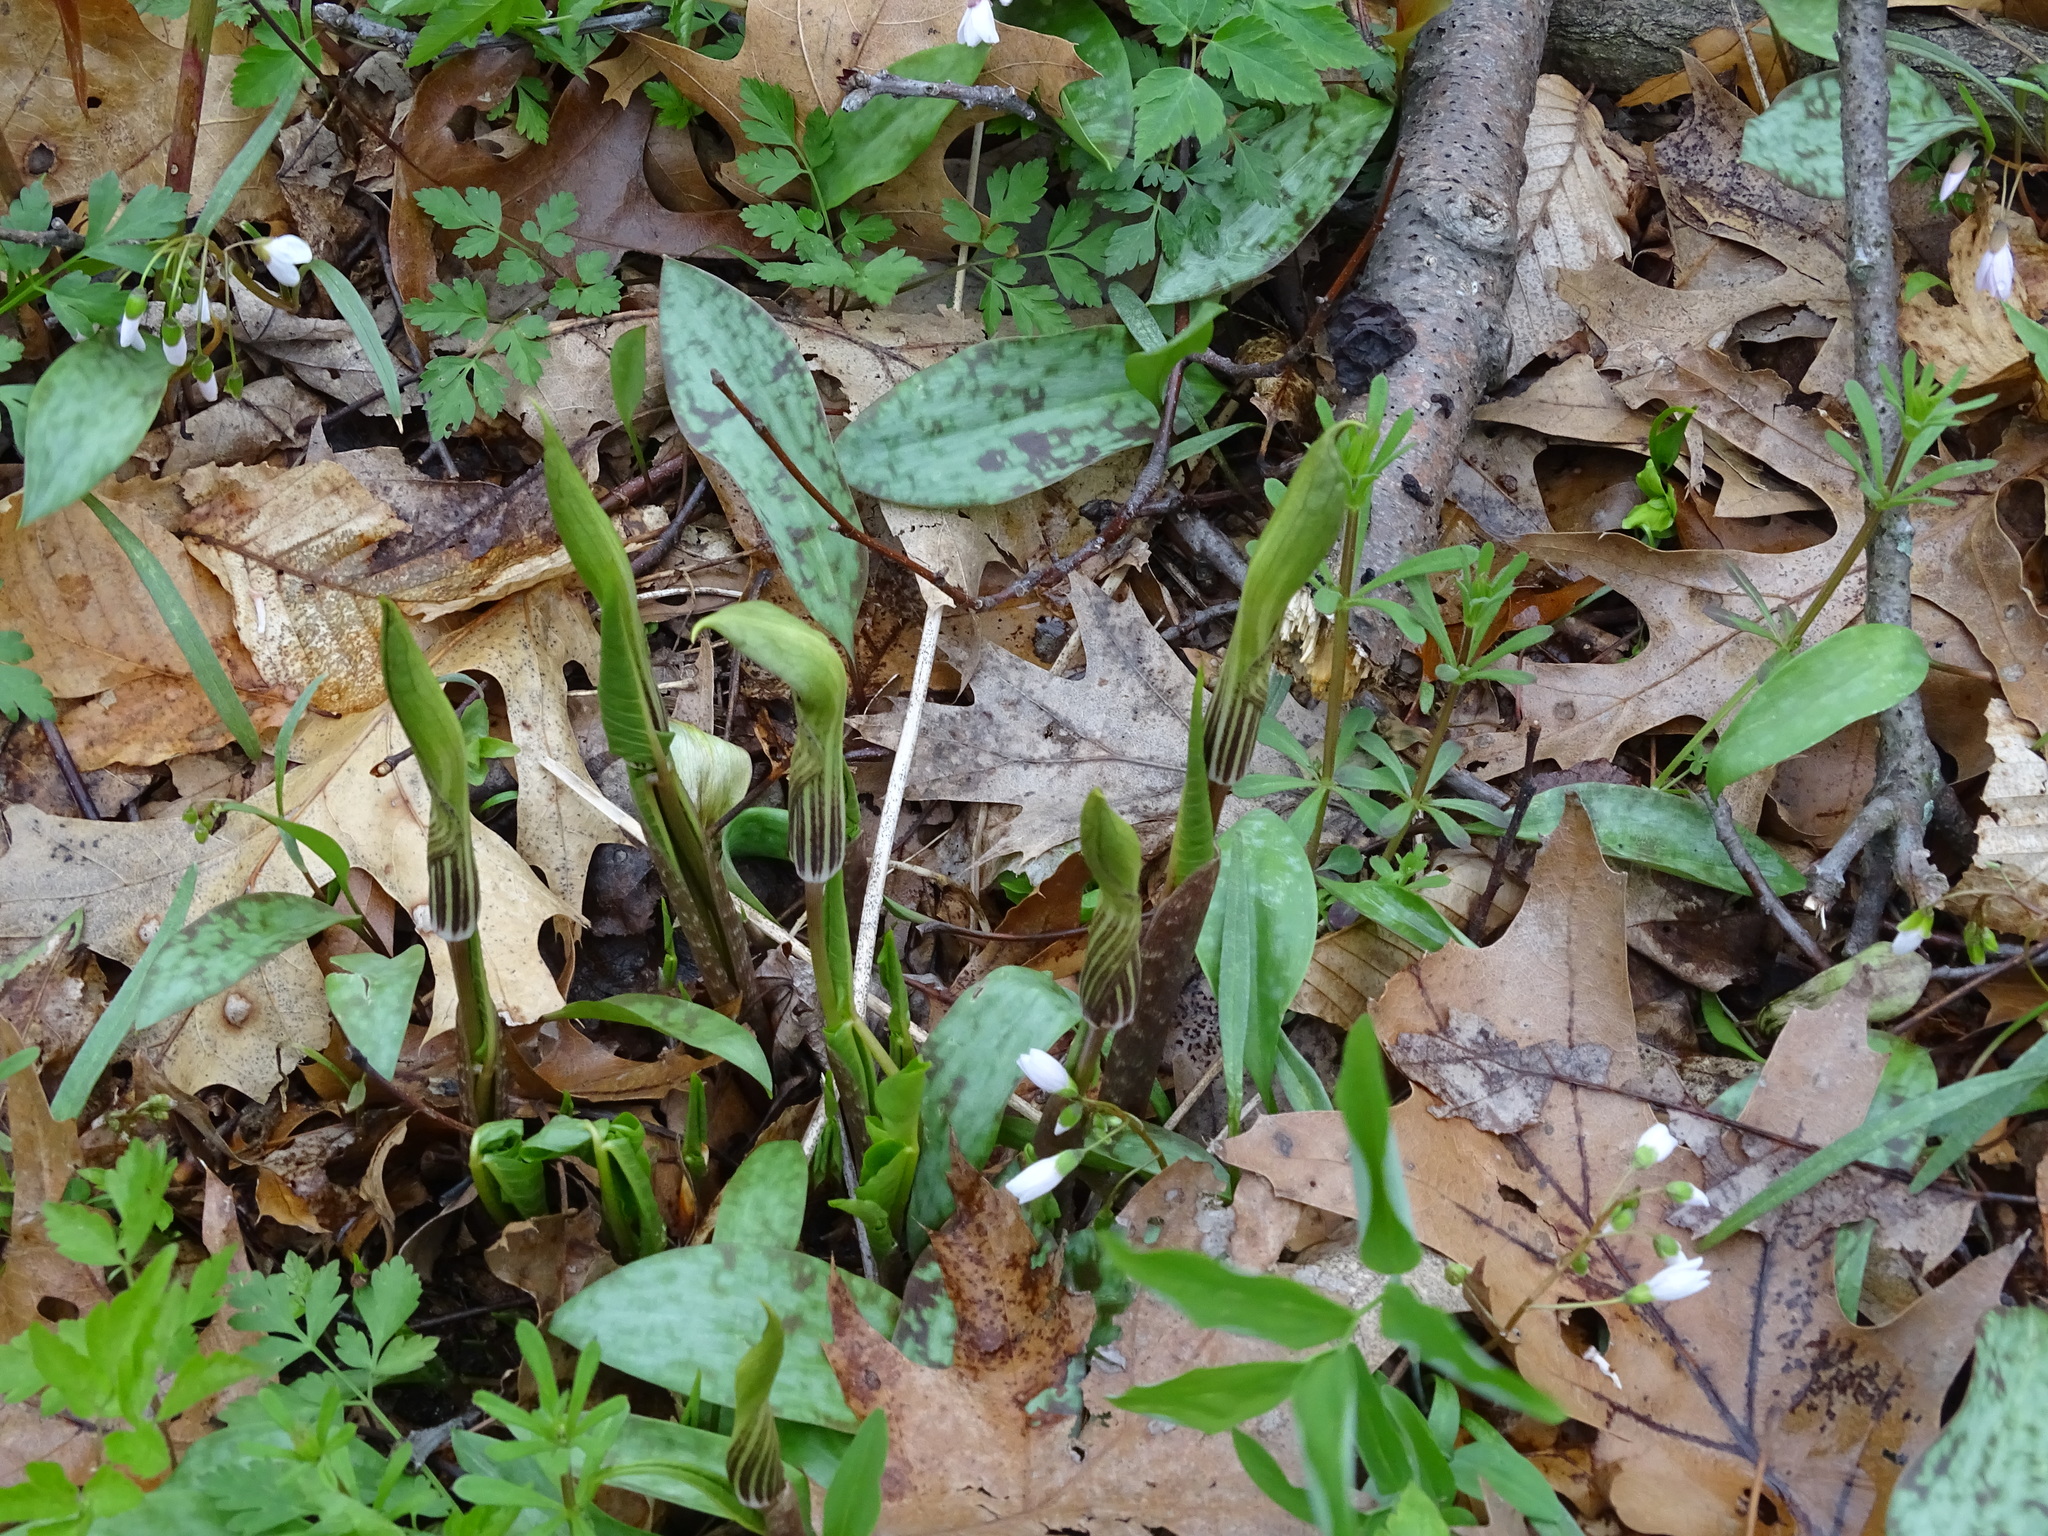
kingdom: Plantae
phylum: Tracheophyta
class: Liliopsida
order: Alismatales
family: Araceae
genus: Arisaema
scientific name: Arisaema triphyllum
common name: Jack-in-the-pulpit
